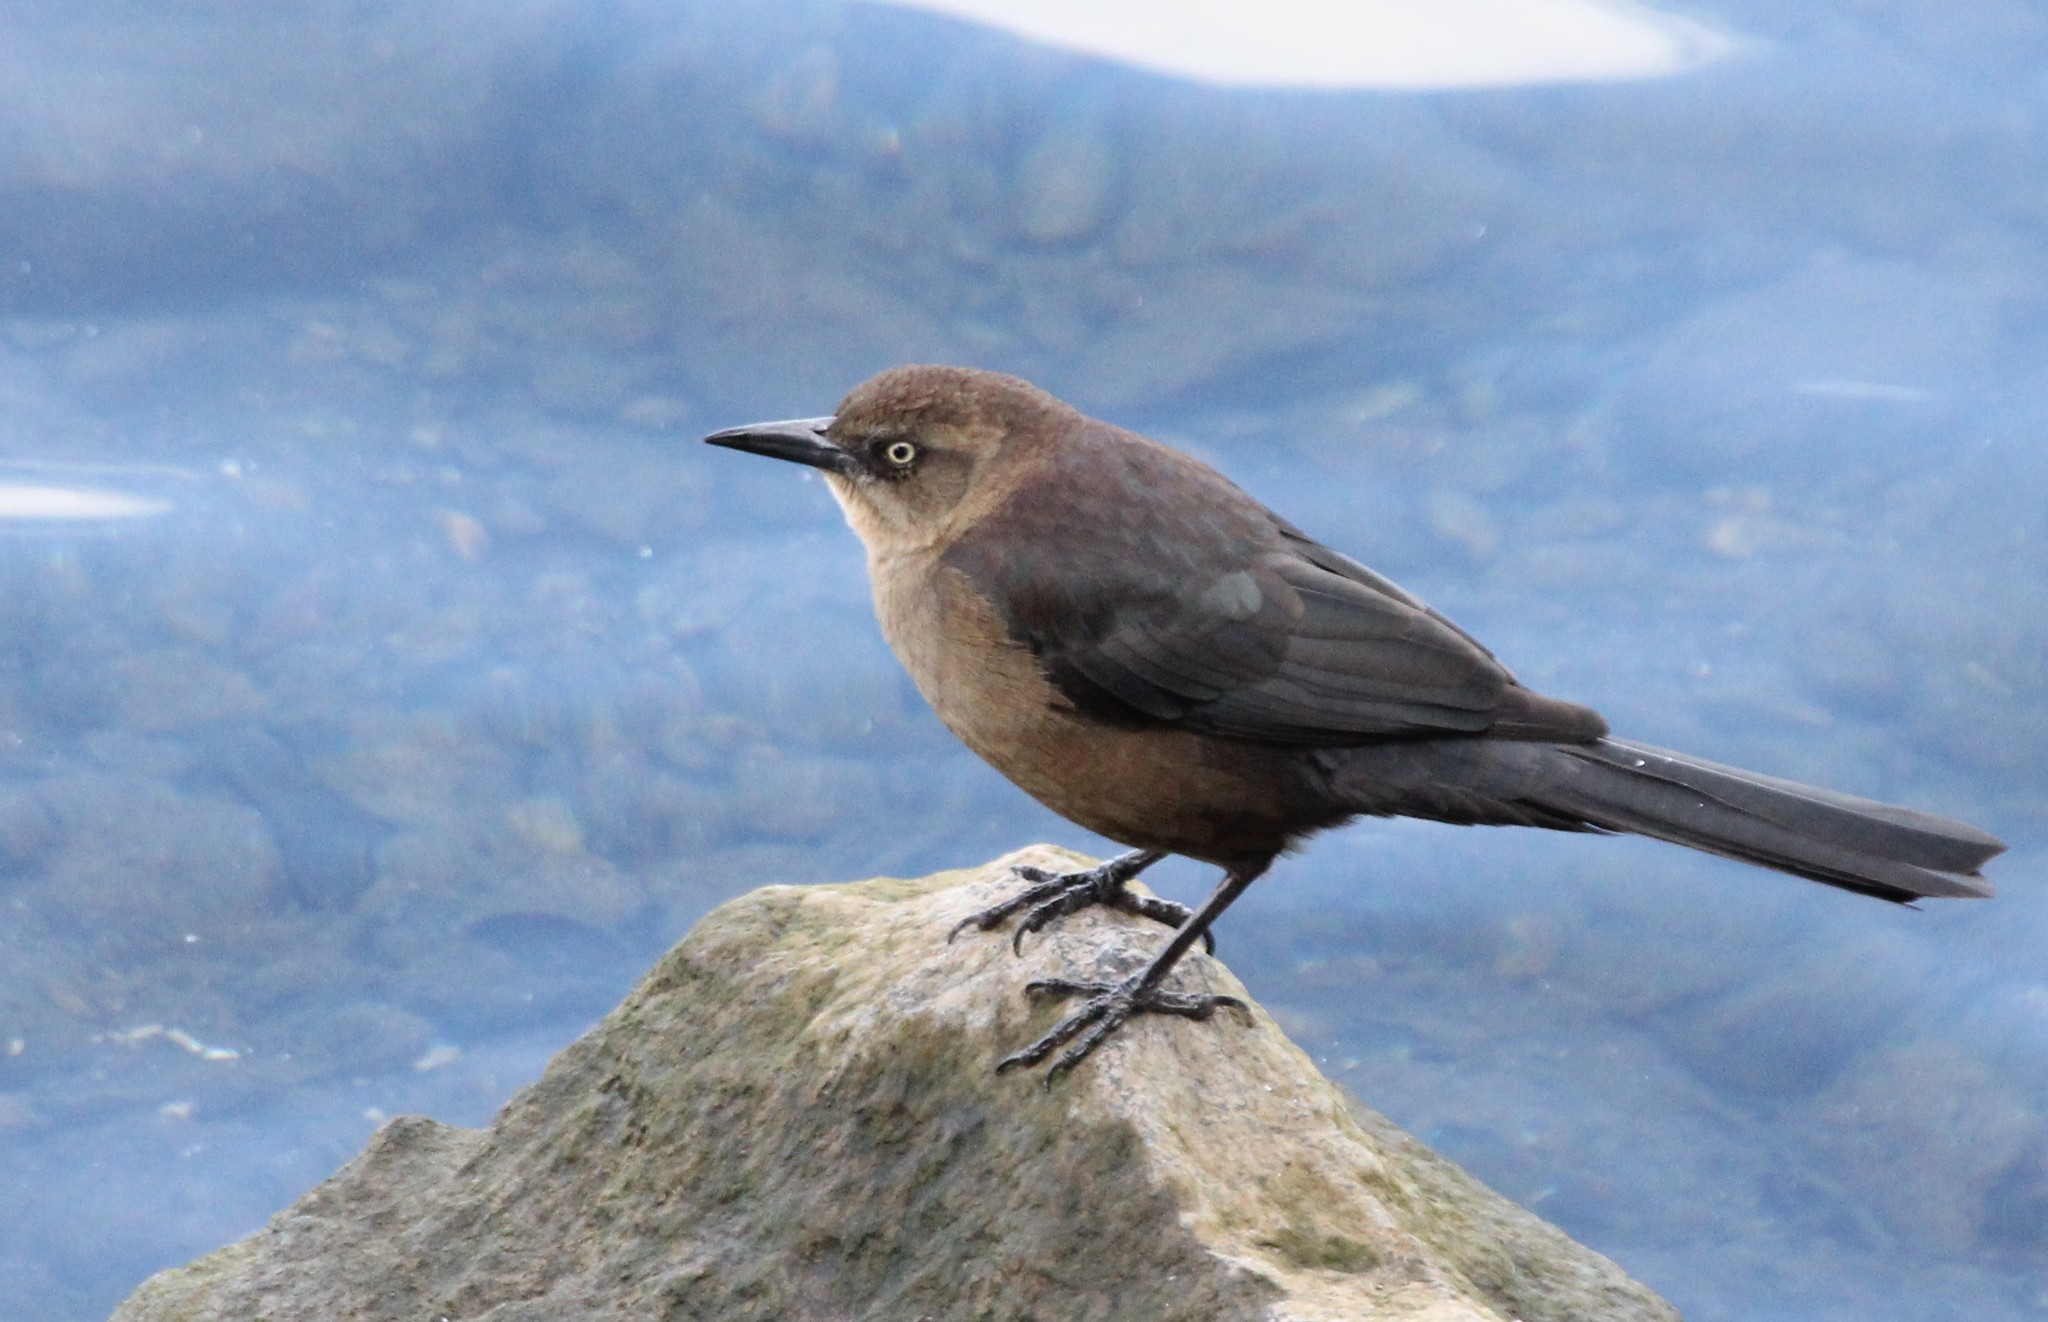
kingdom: Animalia
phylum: Chordata
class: Aves
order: Passeriformes
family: Icteridae
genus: Quiscalus
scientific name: Quiscalus mexicanus
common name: Great-tailed grackle
